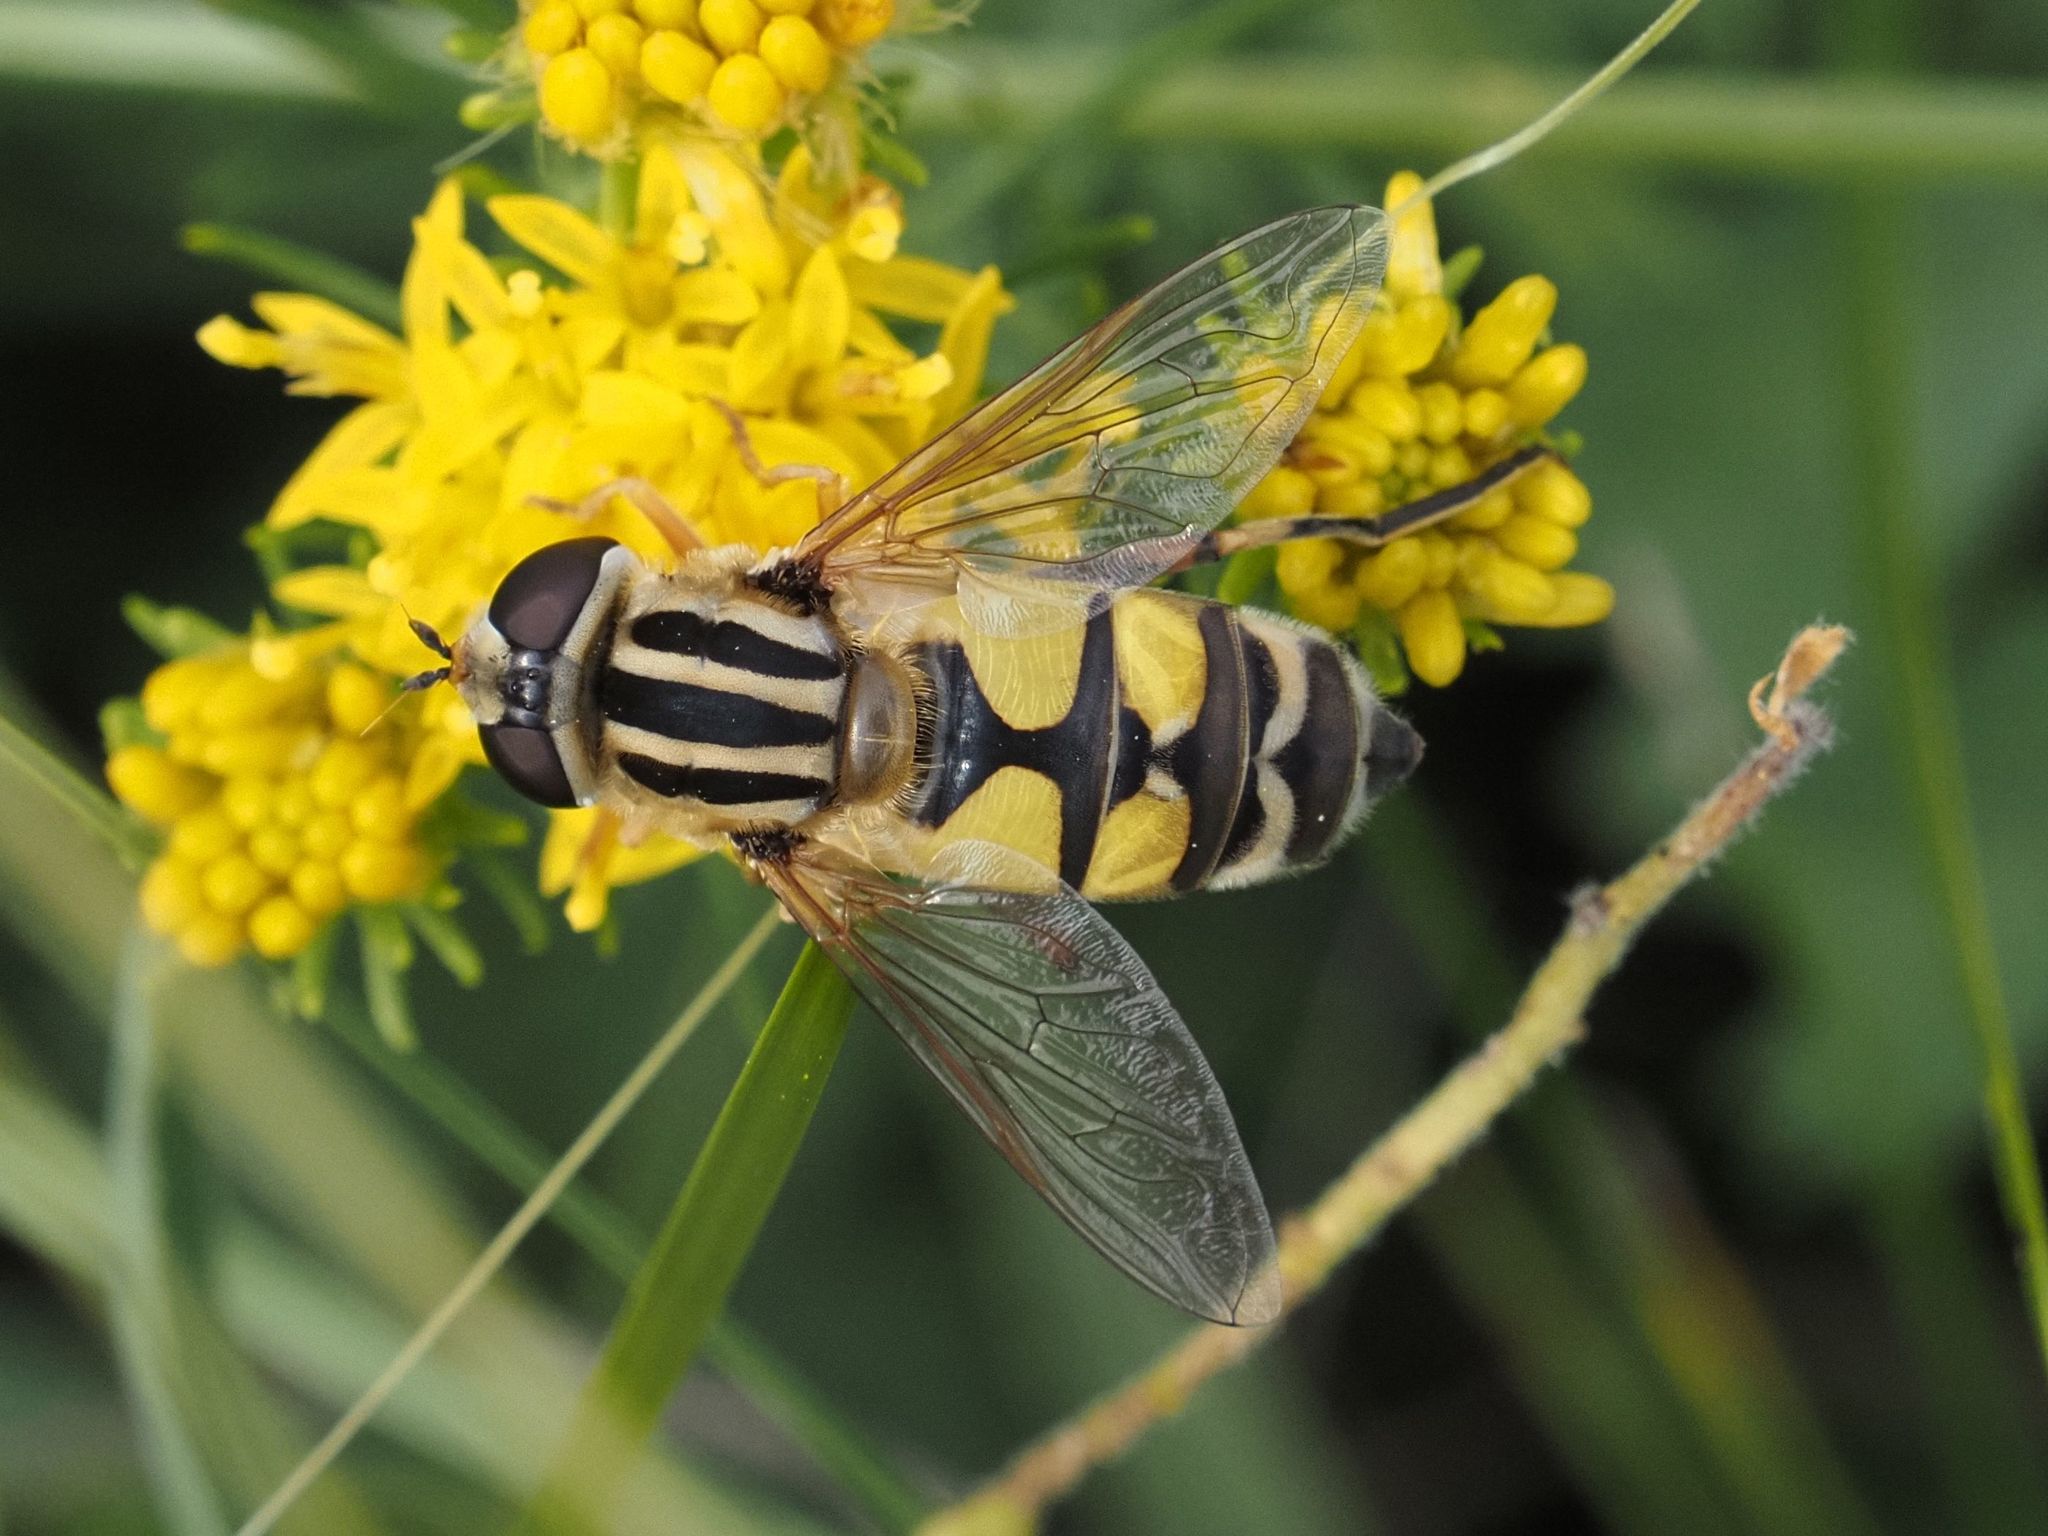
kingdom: Animalia
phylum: Arthropoda
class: Insecta
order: Diptera
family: Syrphidae
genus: Helophilus
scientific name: Helophilus trivittatus
